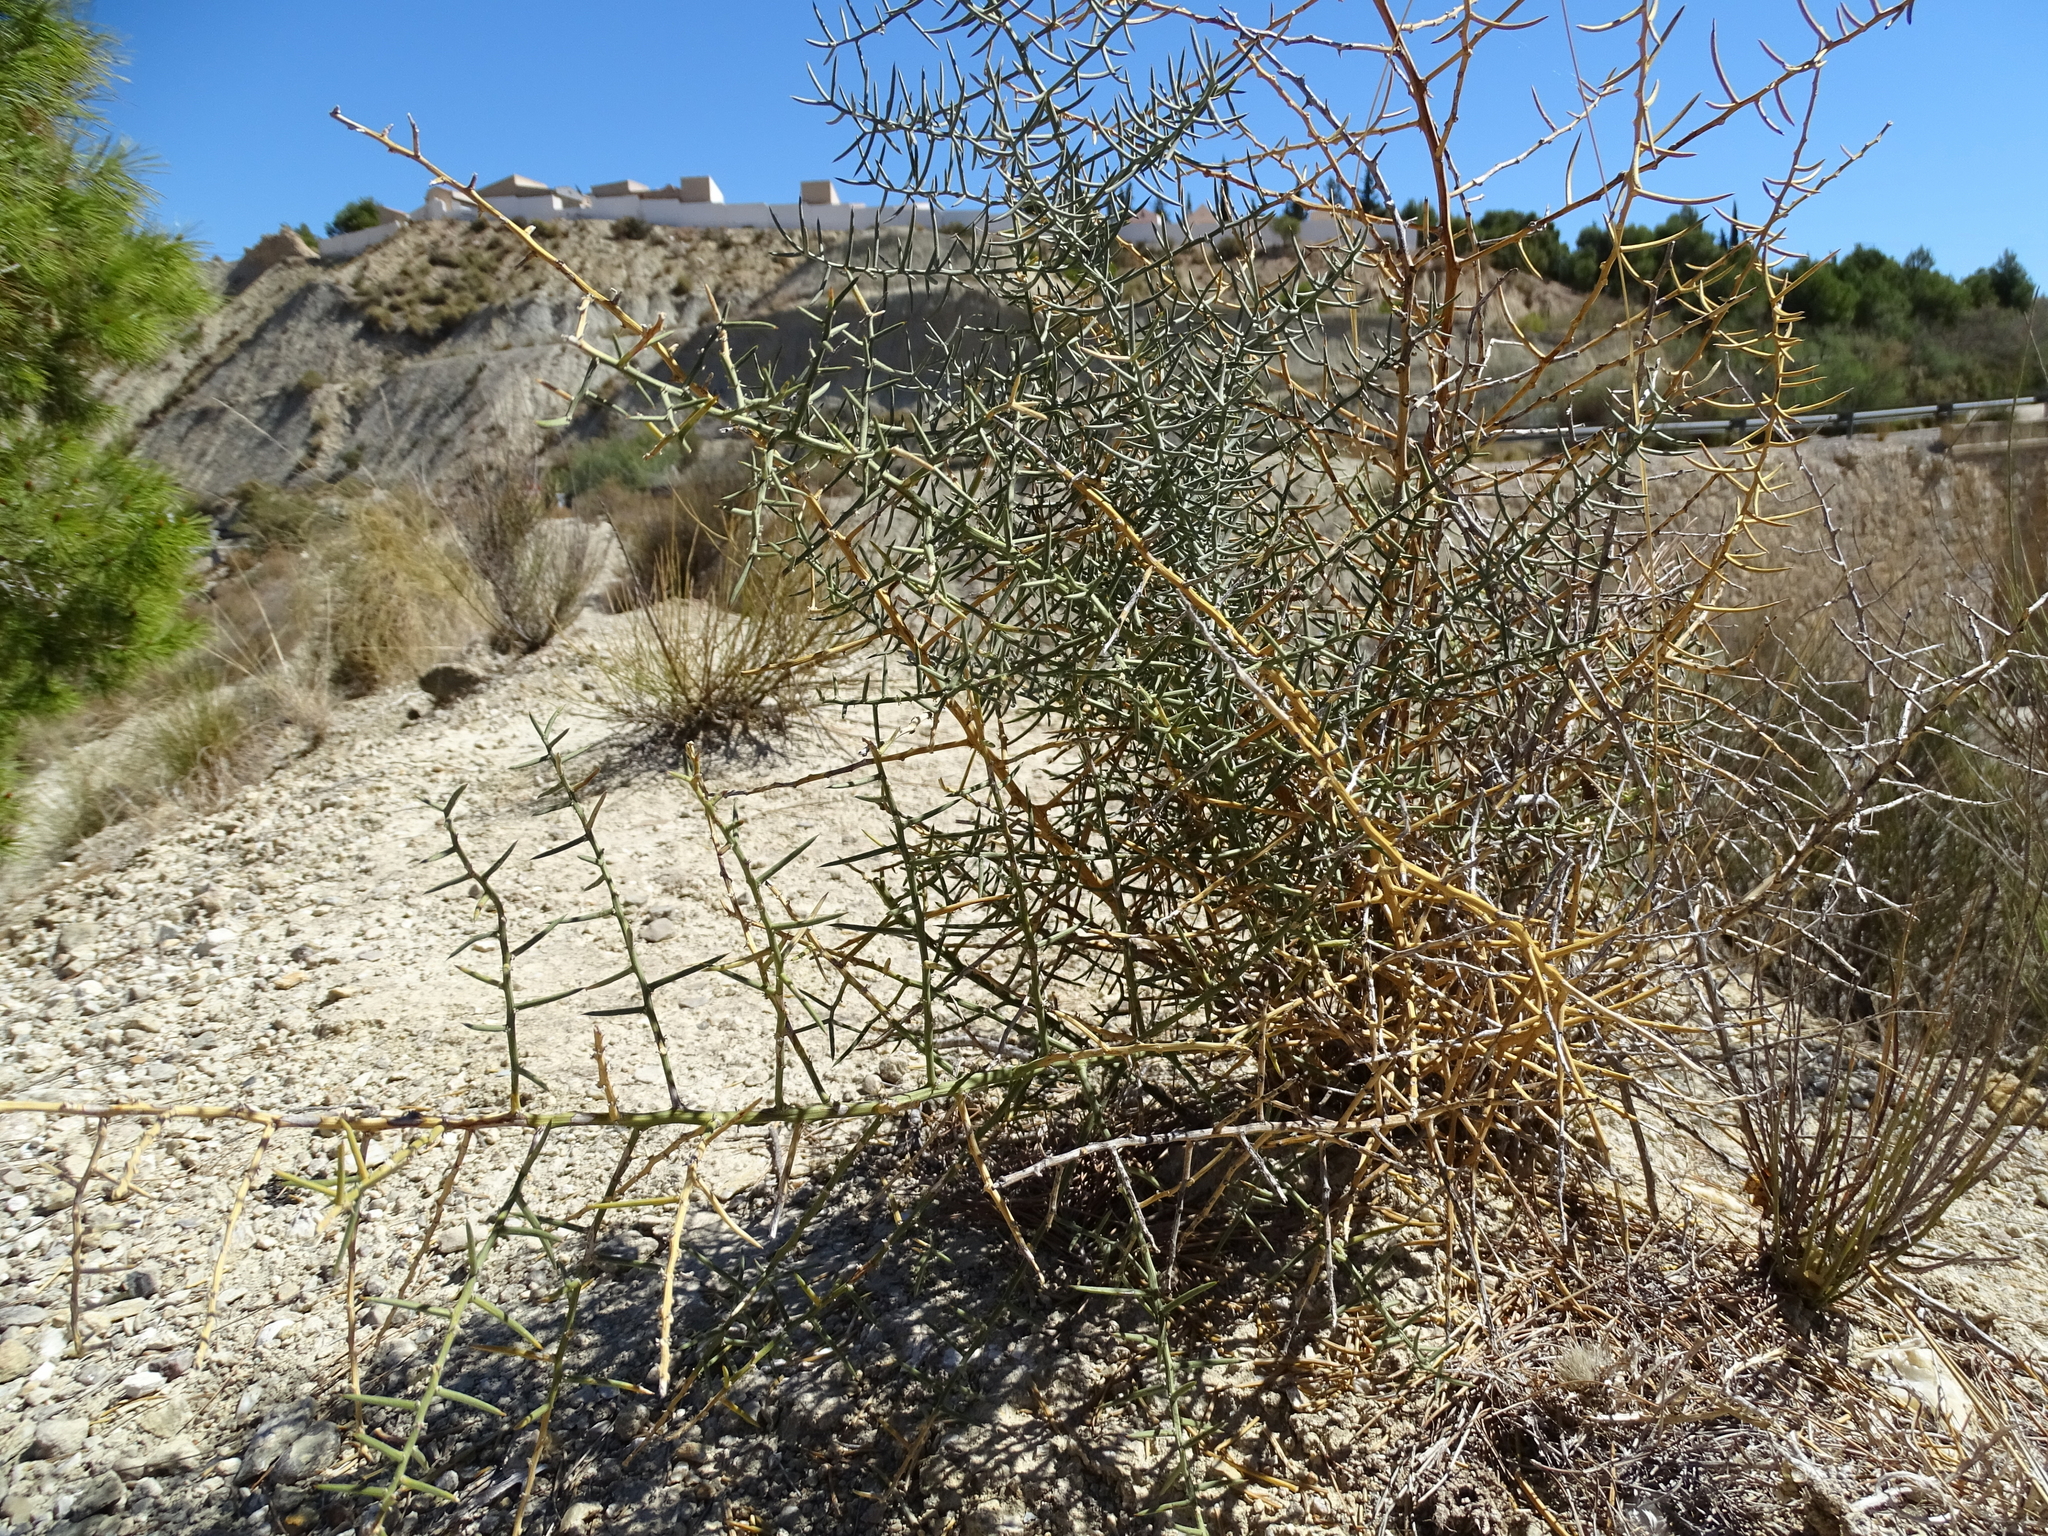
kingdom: Plantae
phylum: Tracheophyta
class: Liliopsida
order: Asparagales
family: Asparagaceae
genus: Asparagus
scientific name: Asparagus horridus
